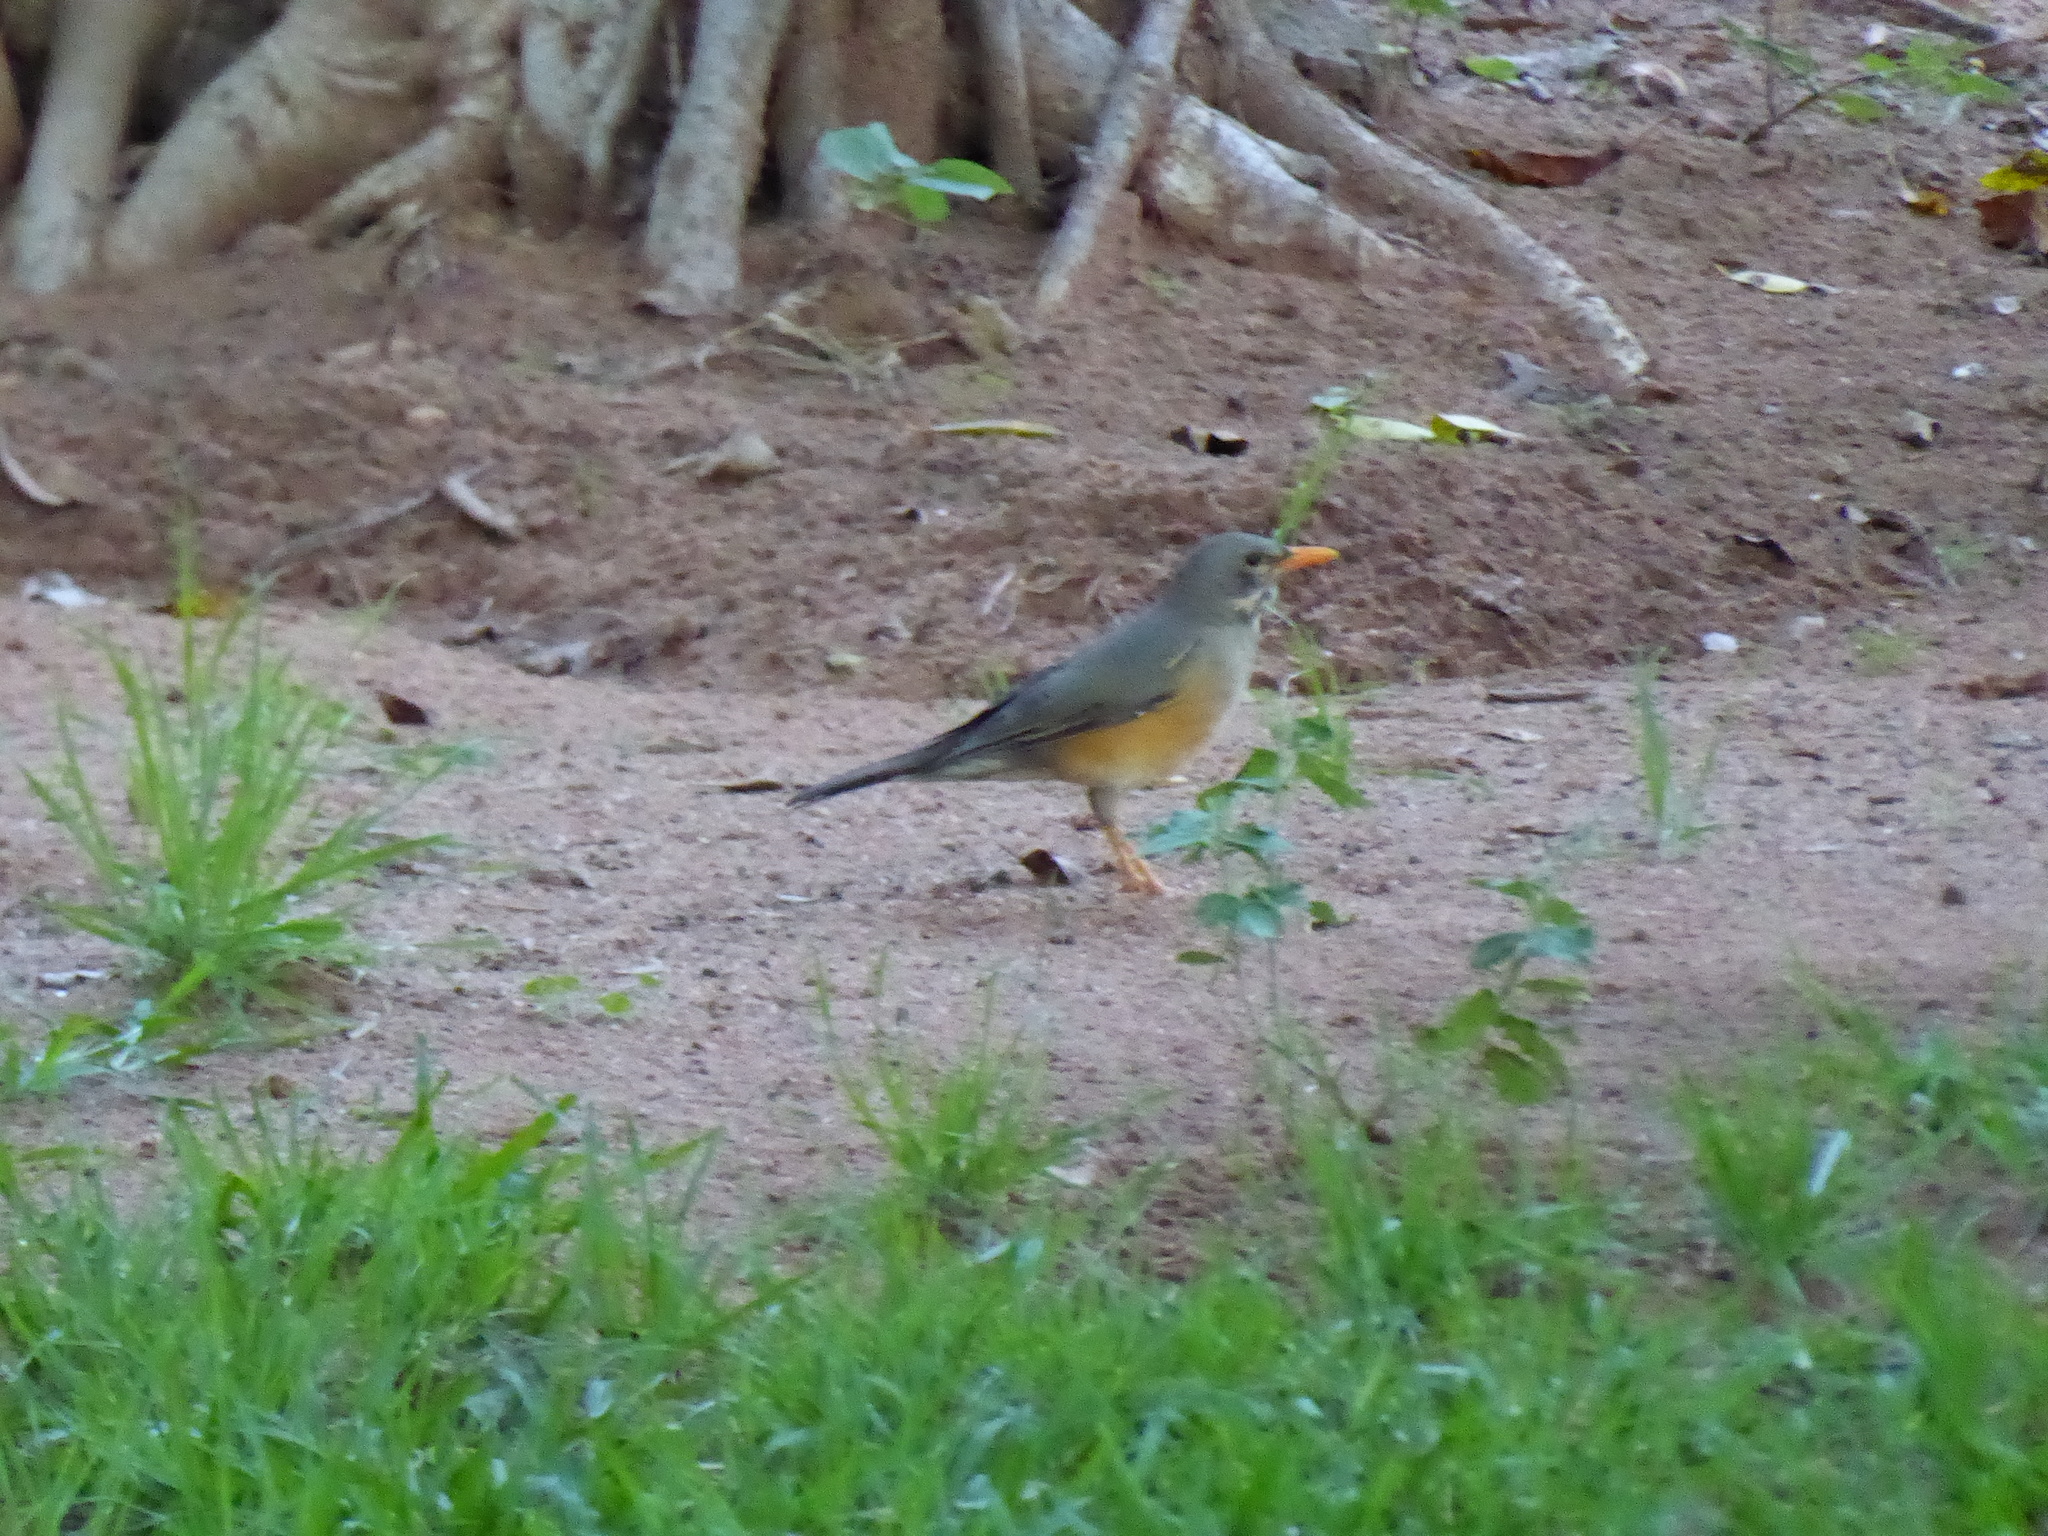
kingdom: Animalia
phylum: Chordata
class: Aves
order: Passeriformes
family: Turdidae
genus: Turdus
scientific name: Turdus libonyana
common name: Kurrichane thrush
